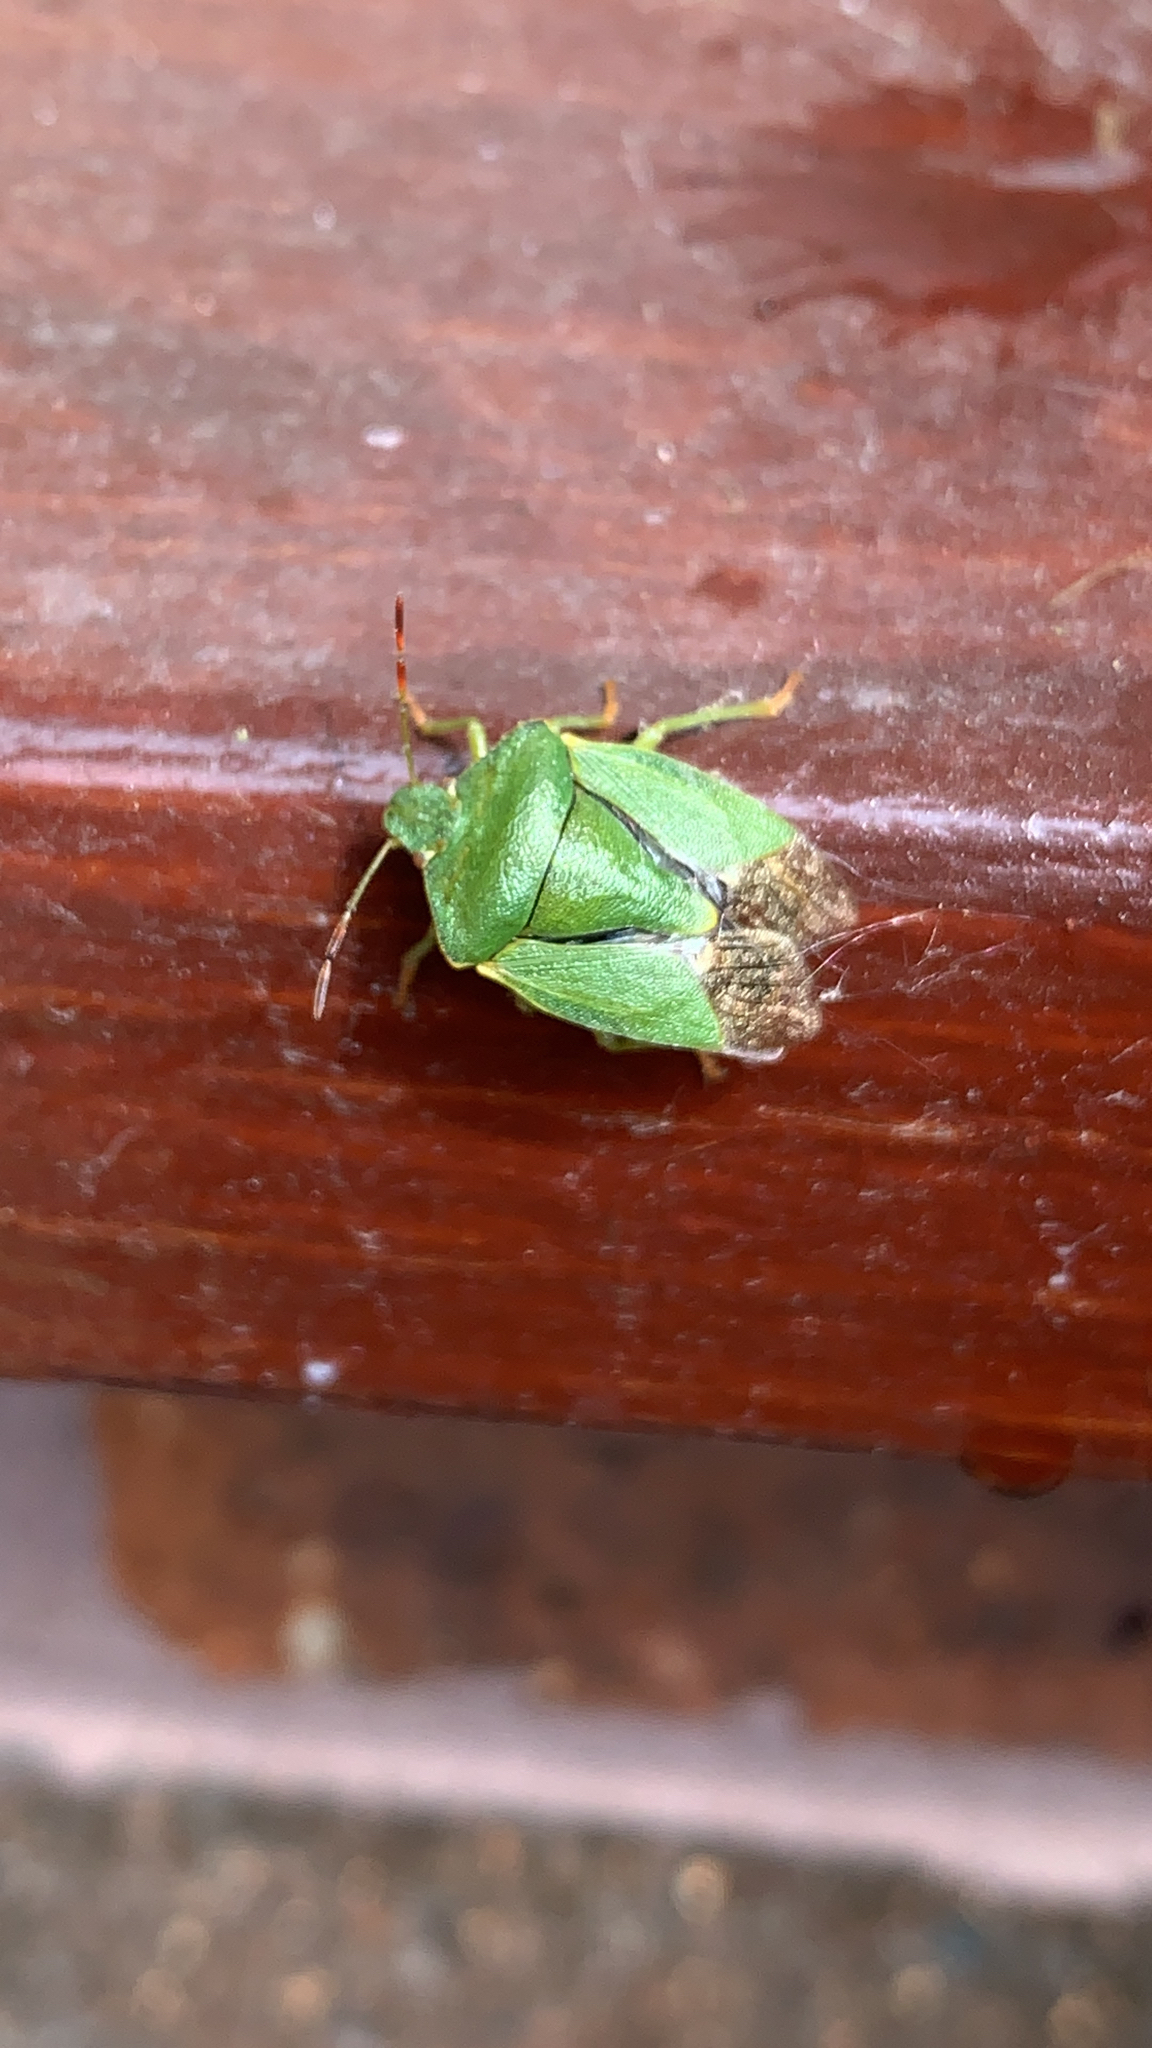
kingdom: Animalia
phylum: Arthropoda
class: Insecta
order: Hemiptera
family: Pentatomidae
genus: Palomena
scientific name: Palomena prasina
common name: Green shieldbug
